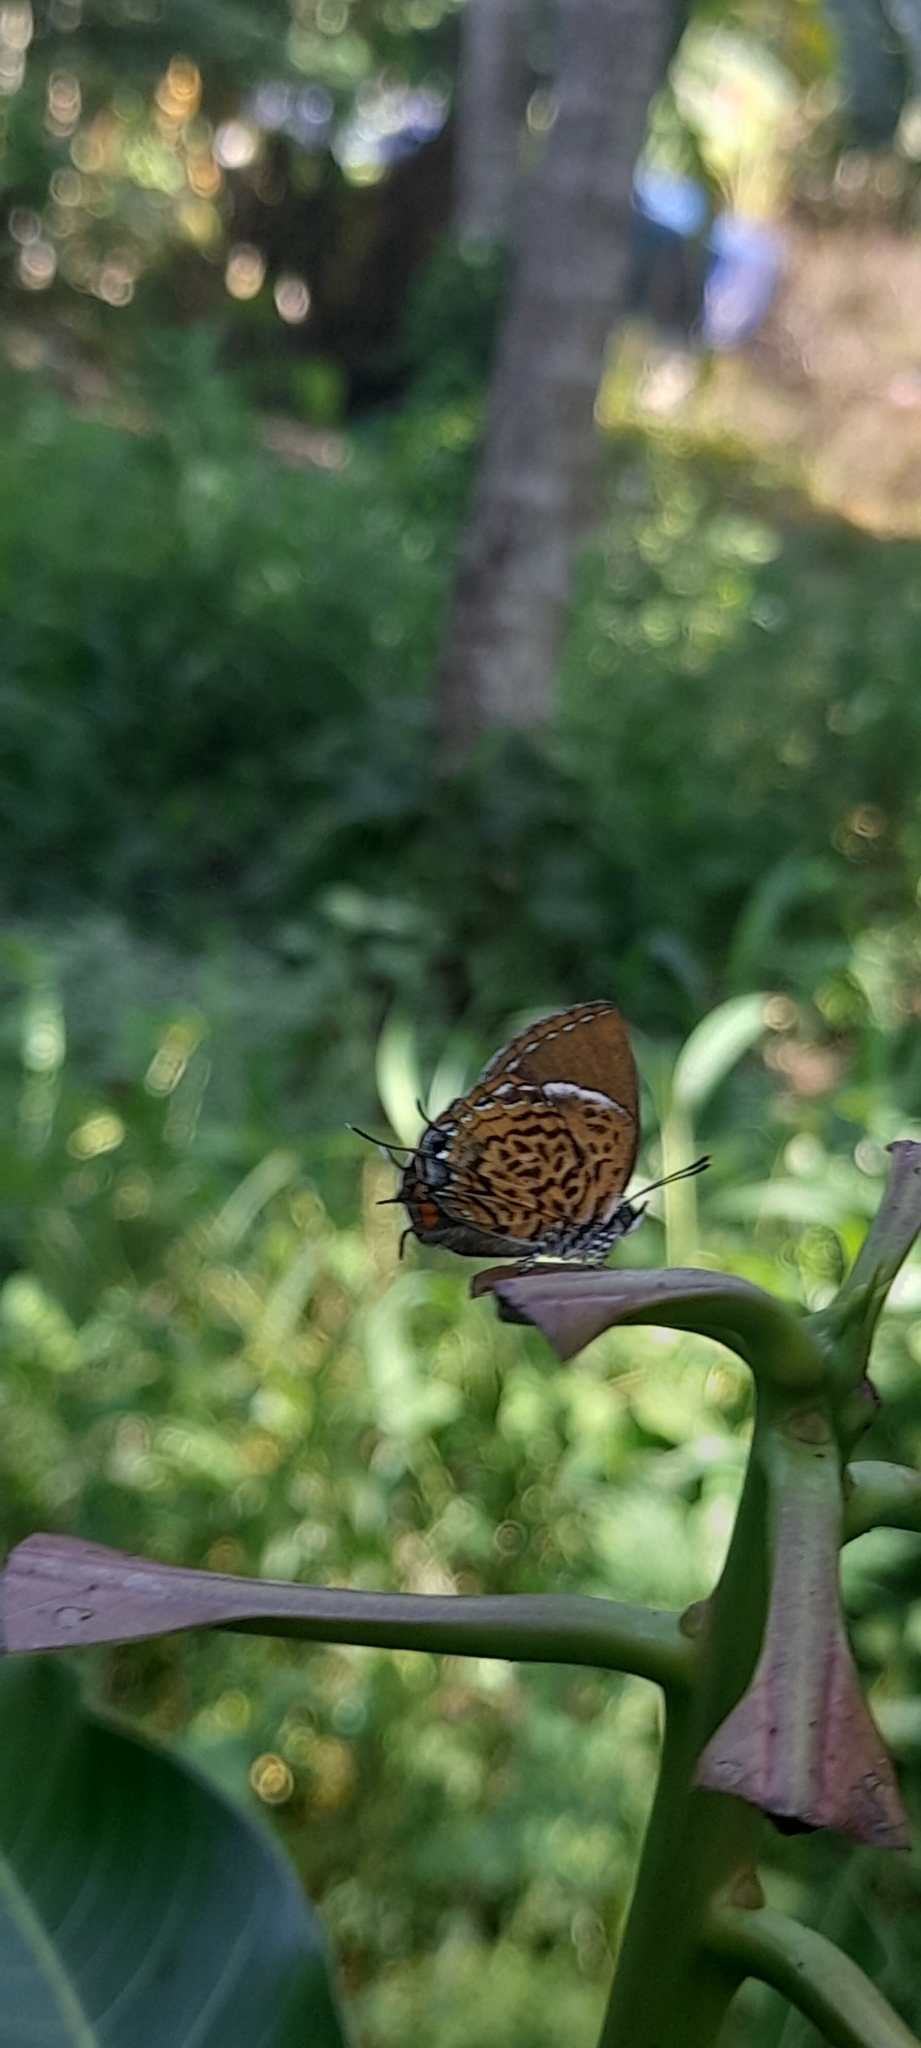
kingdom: Animalia
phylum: Arthropoda
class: Insecta
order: Lepidoptera
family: Lycaenidae
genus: Rathinda
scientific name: Rathinda amor
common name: Monkey puzzle
